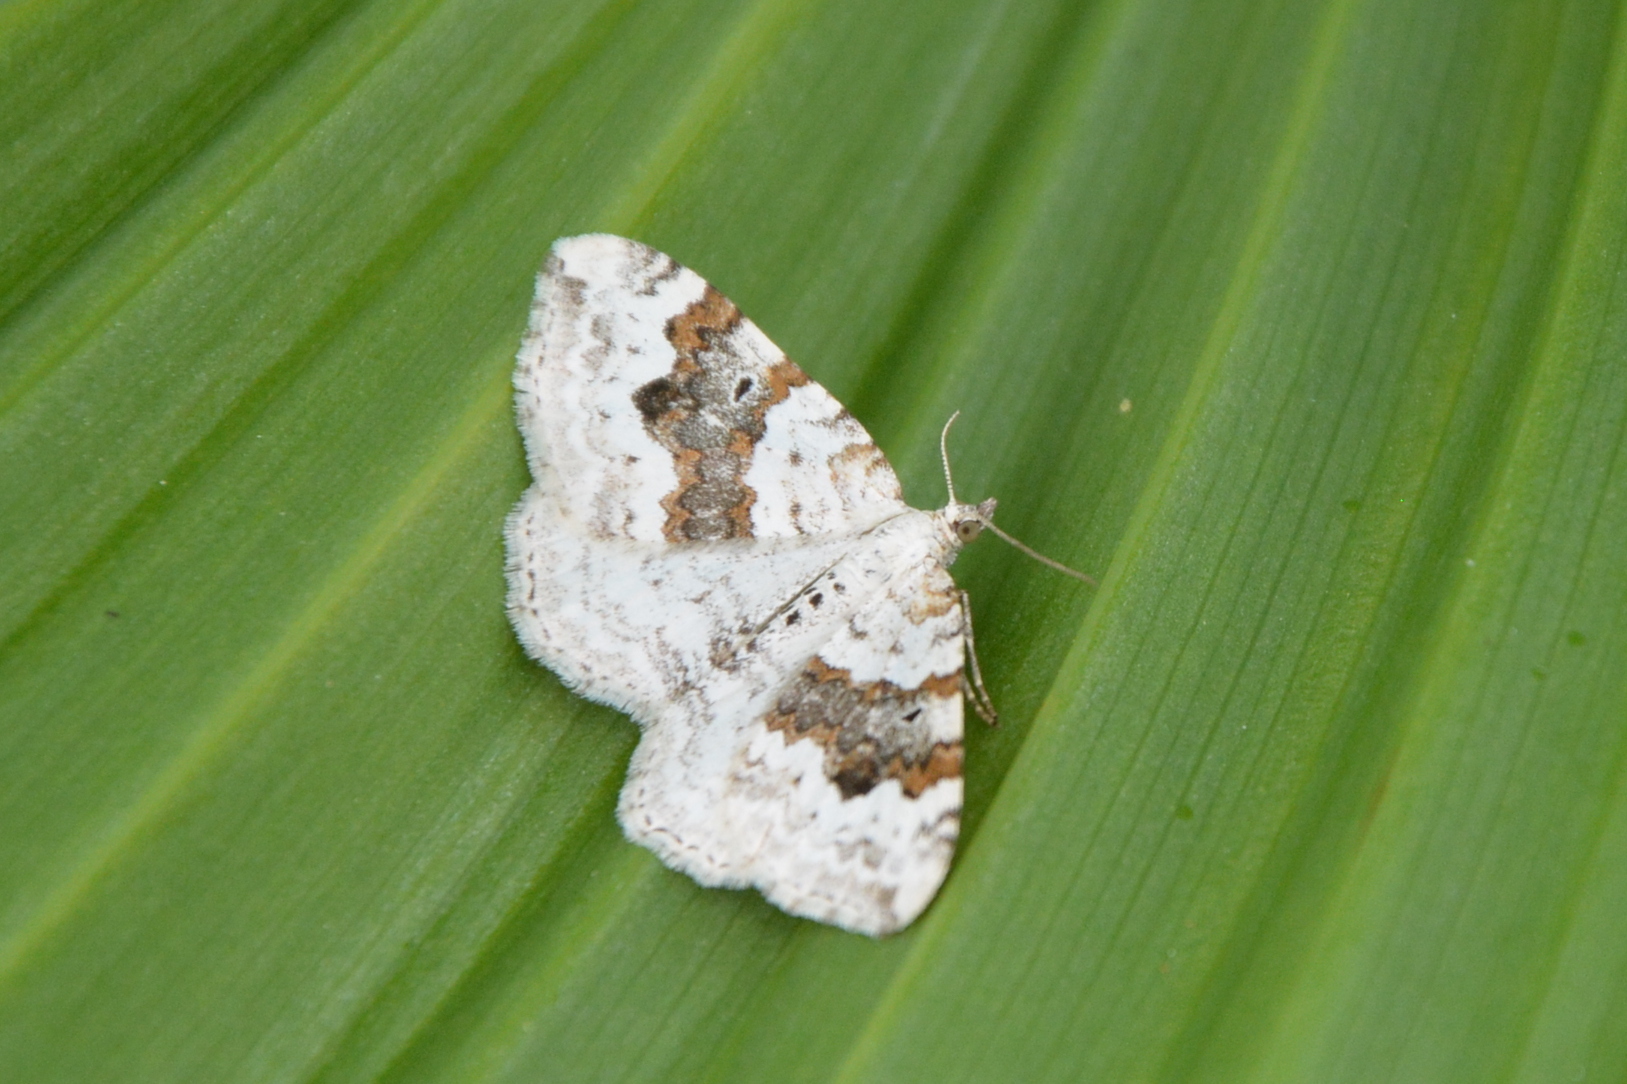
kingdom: Animalia
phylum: Arthropoda
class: Insecta
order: Lepidoptera
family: Geometridae
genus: Xanthorhoe
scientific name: Xanthorhoe montanata
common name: Silver-ground carpet
